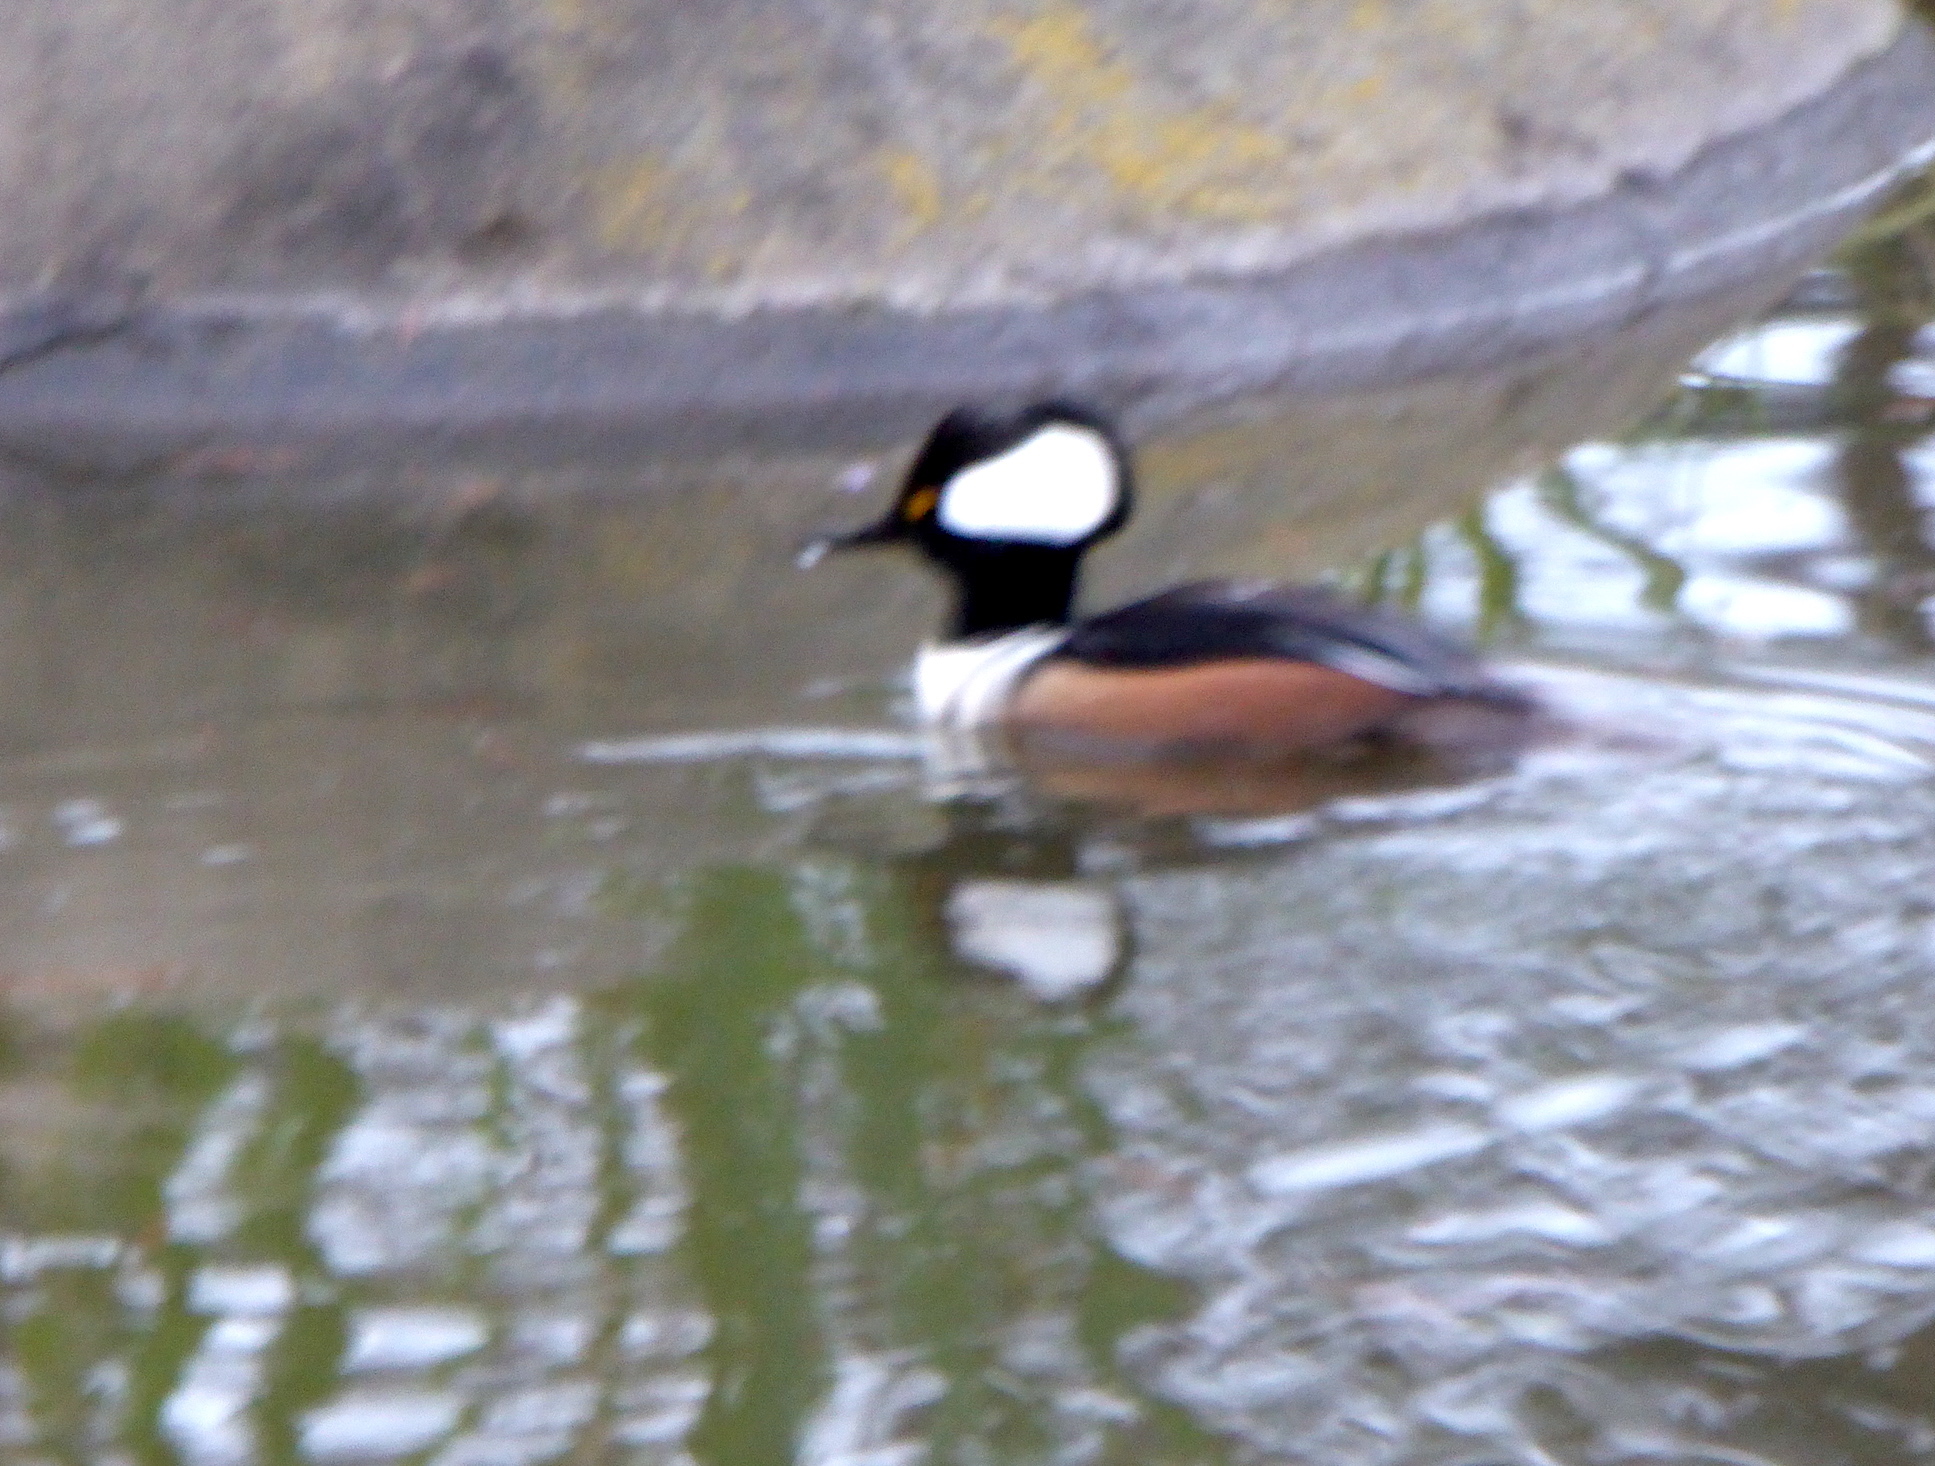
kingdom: Animalia
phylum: Chordata
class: Aves
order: Anseriformes
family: Anatidae
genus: Lophodytes
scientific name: Lophodytes cucullatus
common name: Hooded merganser
